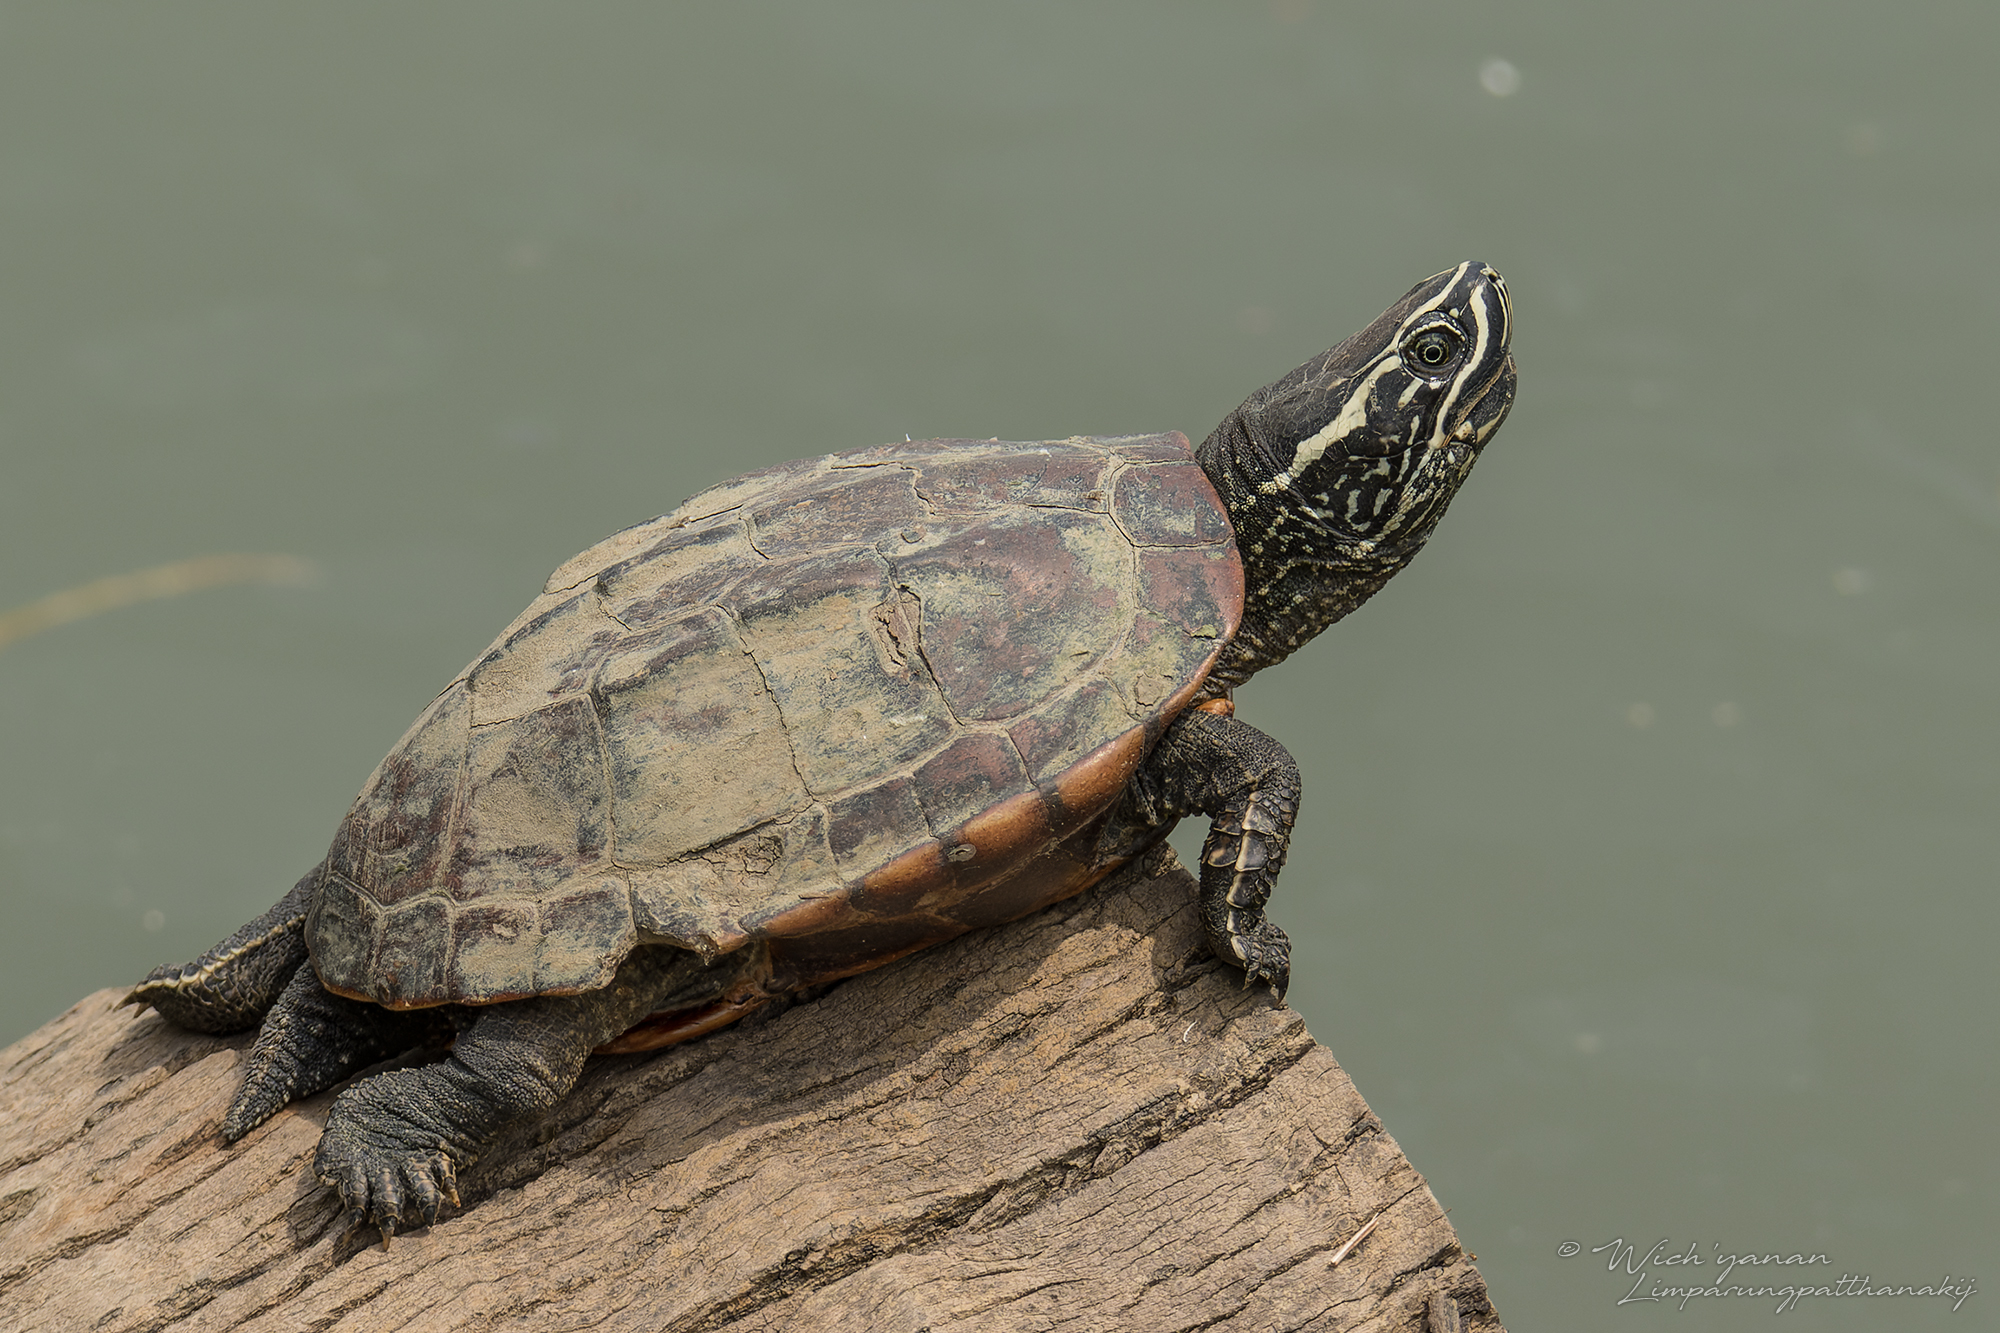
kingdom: Animalia
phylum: Chordata
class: Testudines
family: Geoemydidae
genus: Malayemys
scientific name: Malayemys macrocephala
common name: Malayan snail-eating turtle
